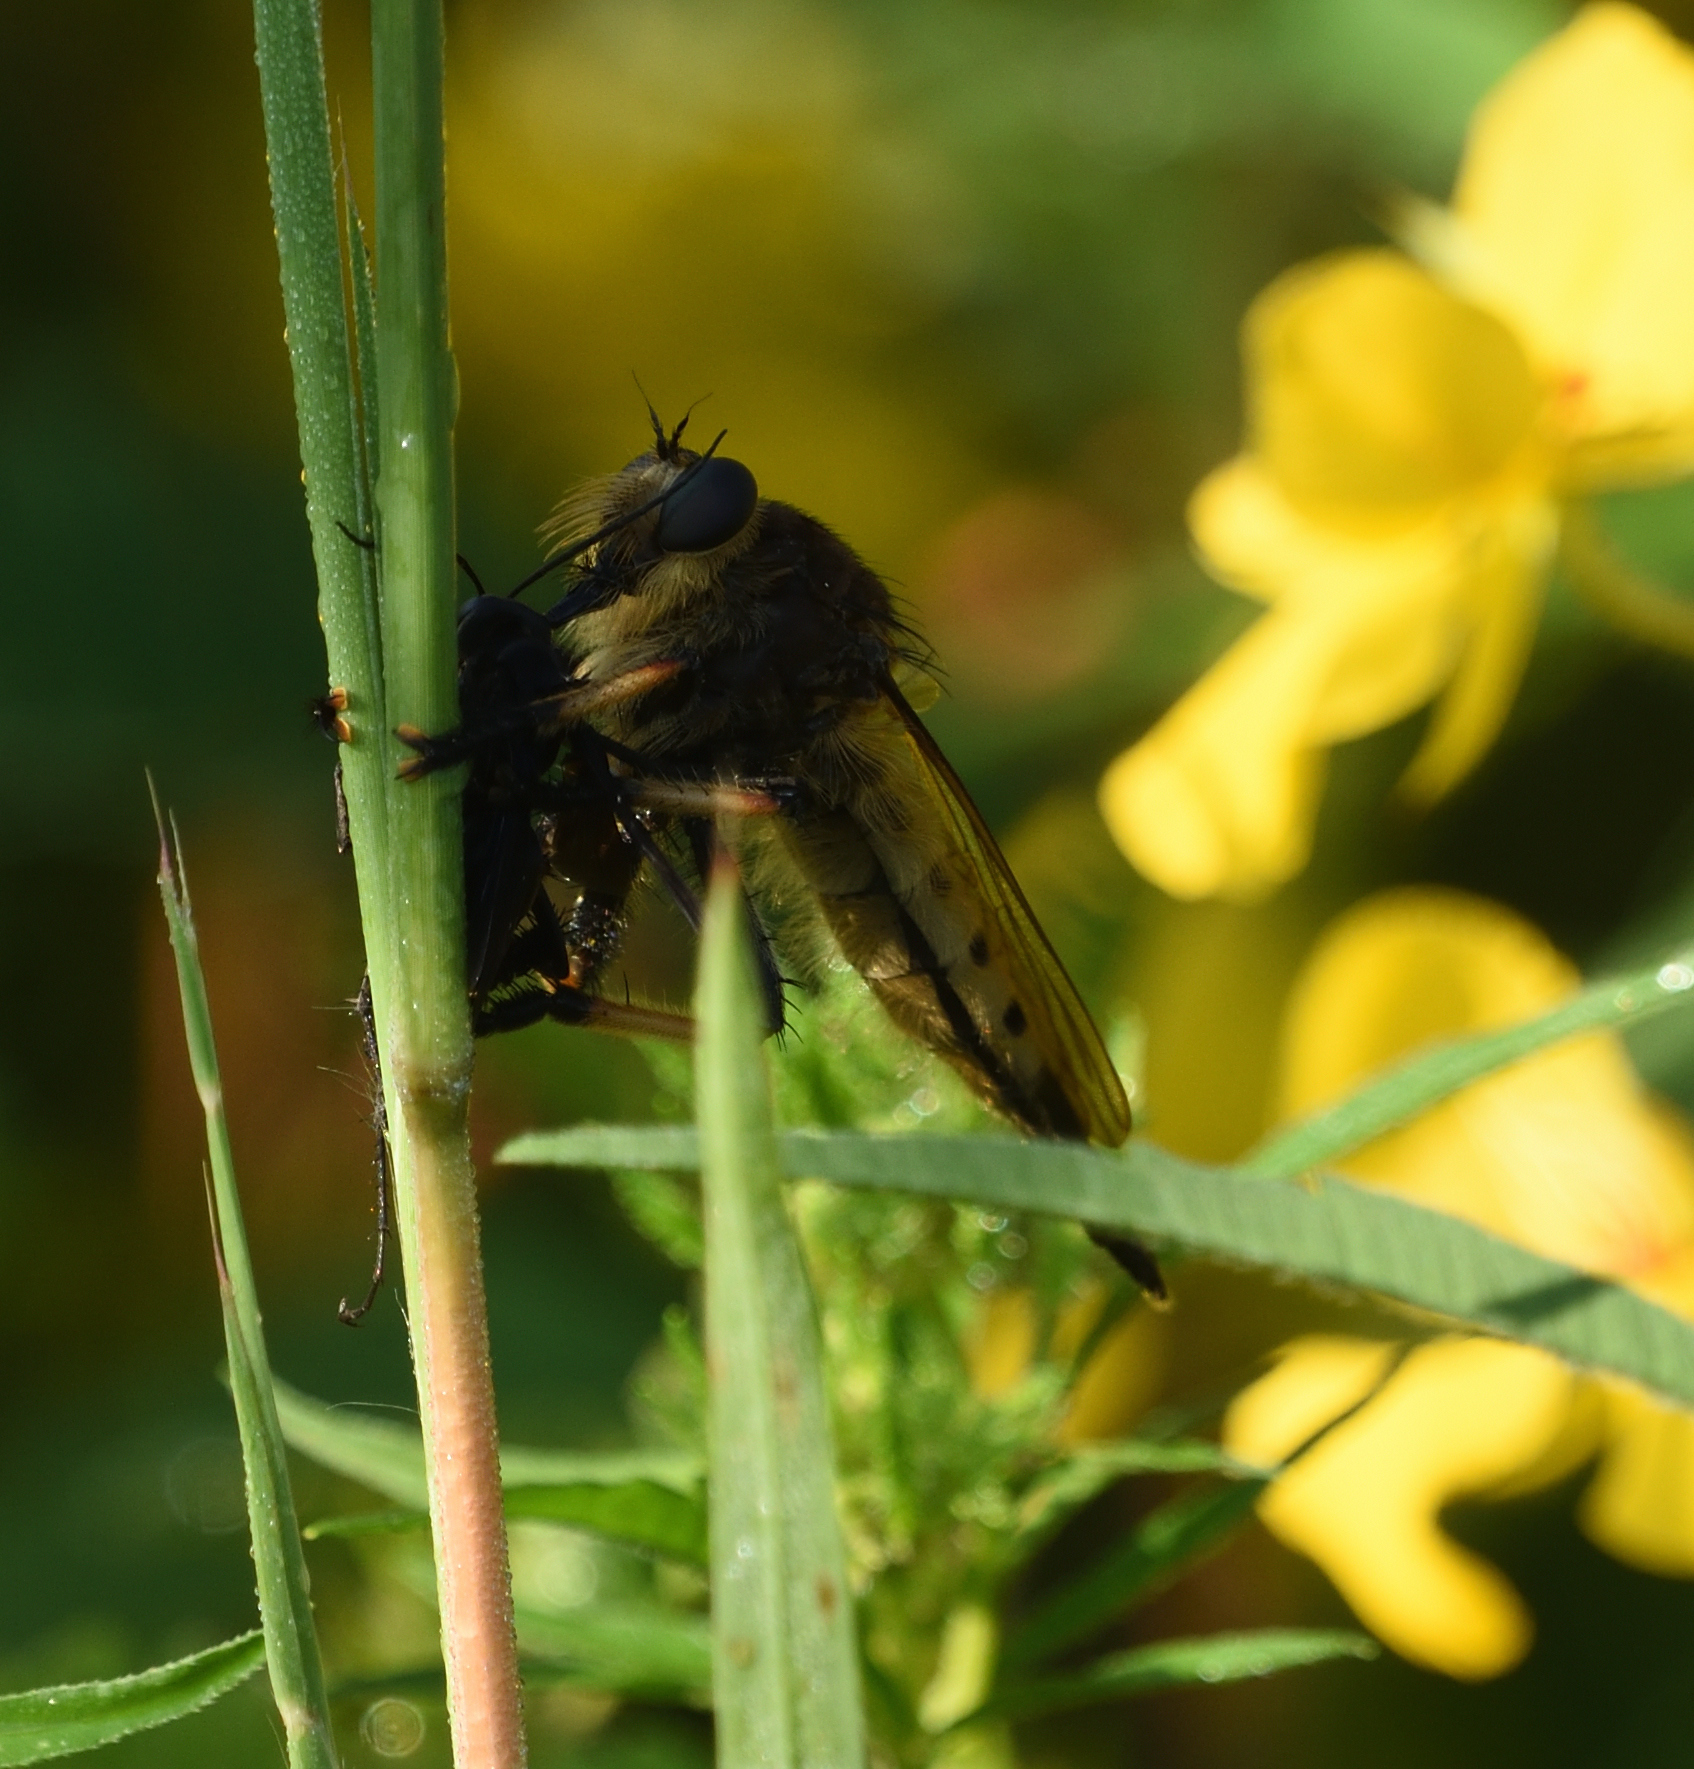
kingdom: Animalia
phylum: Arthropoda
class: Insecta
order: Diptera
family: Asilidae
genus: Promachus
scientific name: Promachus rufipes
